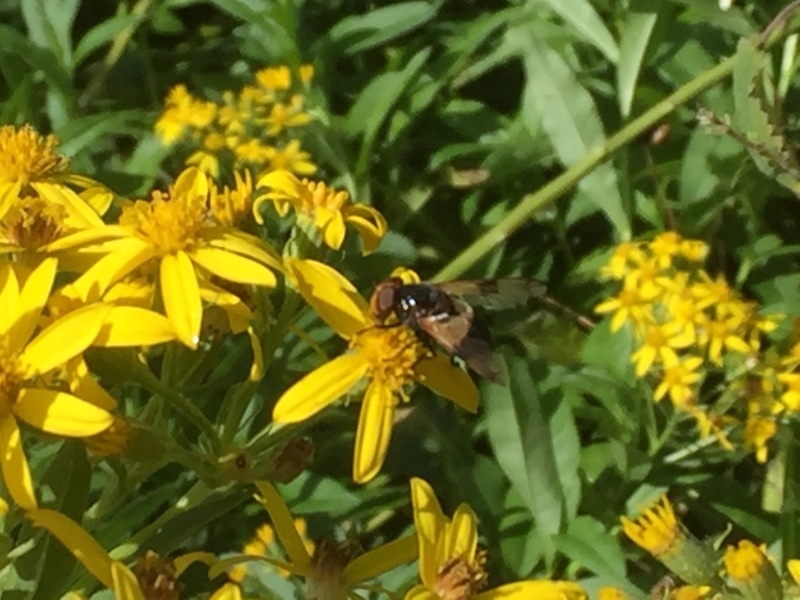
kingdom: Animalia
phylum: Arthropoda
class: Insecta
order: Diptera
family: Syrphidae
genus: Volucella
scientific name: Volucella pellucens
